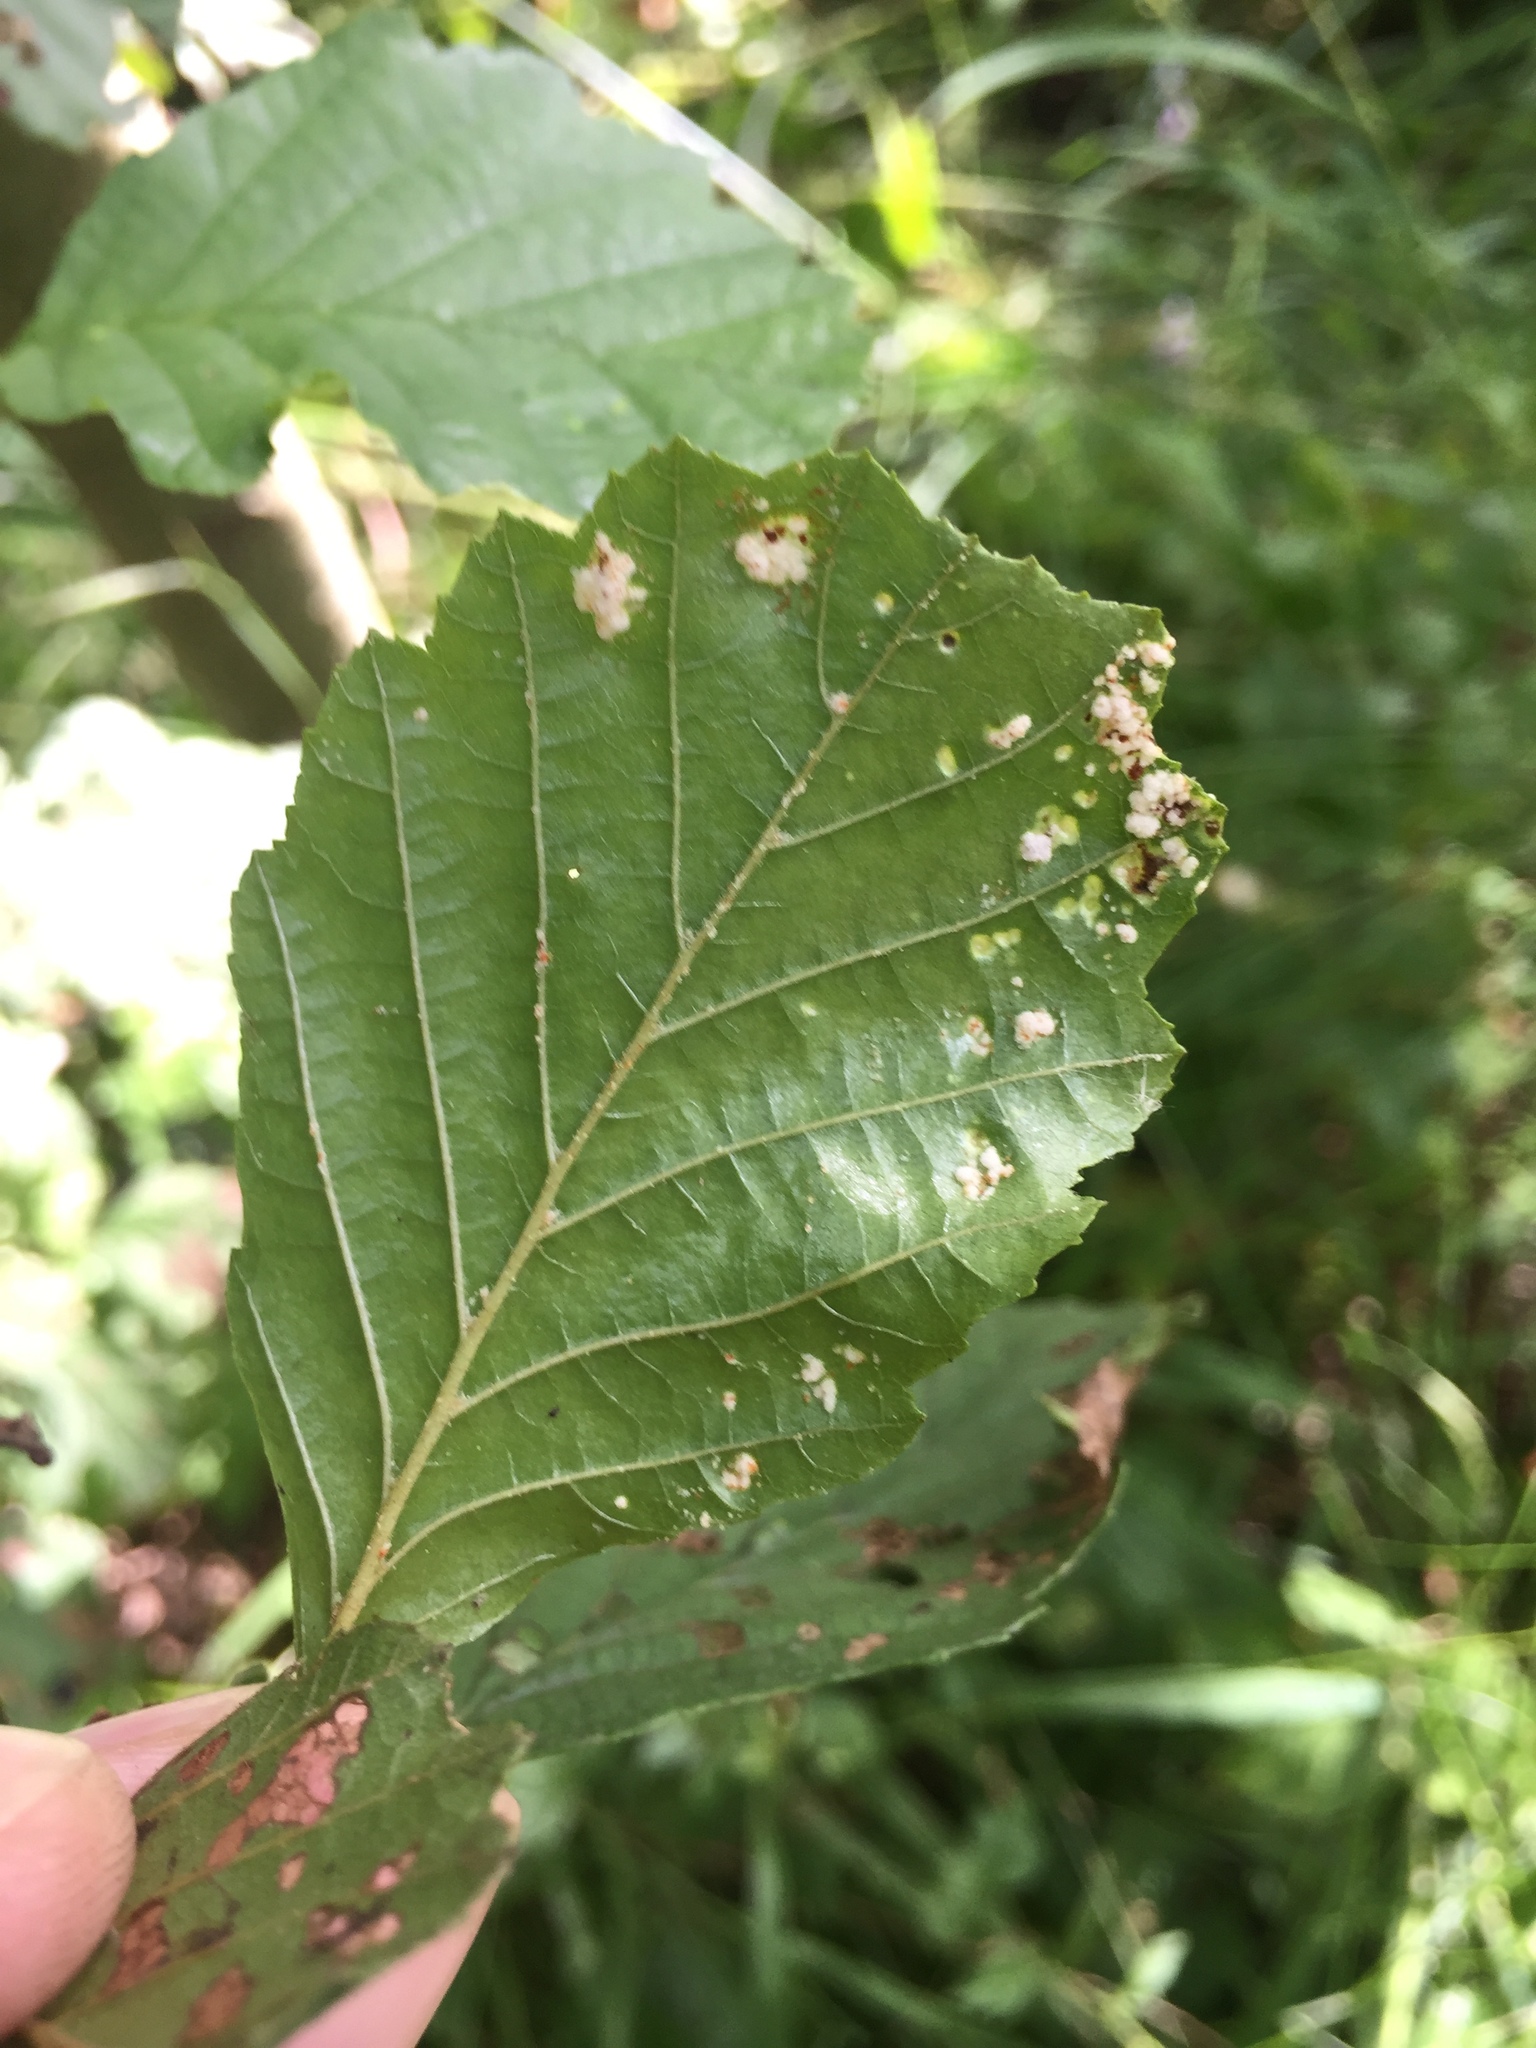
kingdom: Animalia
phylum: Arthropoda
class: Arachnida
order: Trombidiformes
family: Eriophyidae
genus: Acalitus
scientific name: Acalitus brevitarsus
